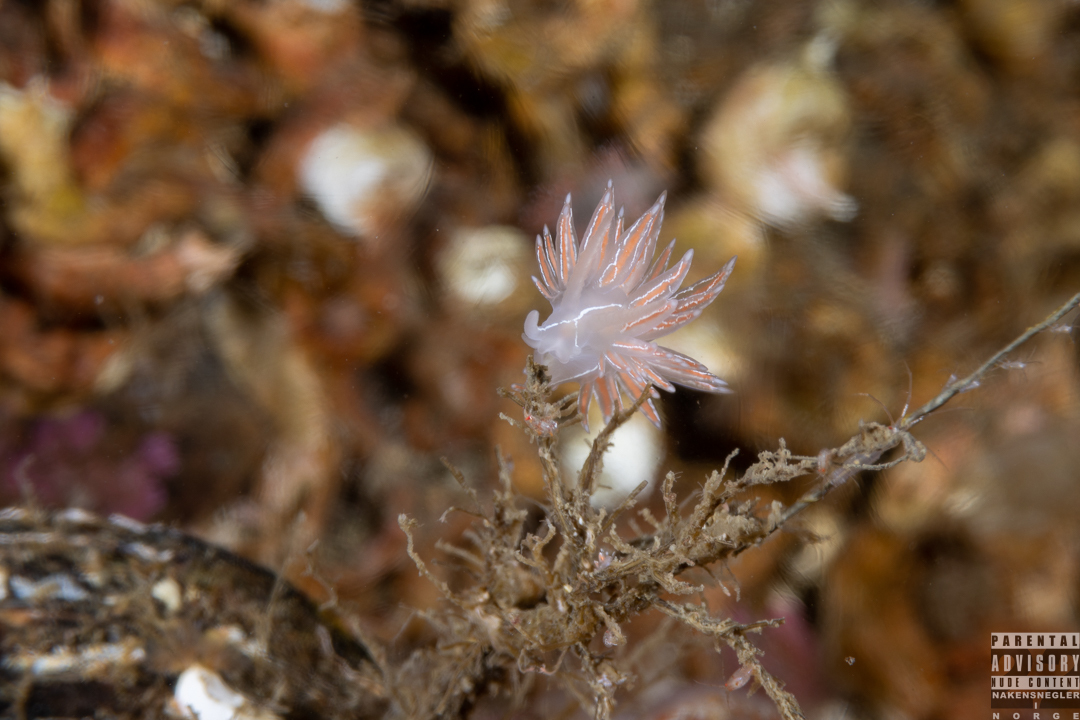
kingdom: Animalia
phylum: Mollusca
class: Gastropoda
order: Nudibranchia
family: Coryphellidae
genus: Coryphella
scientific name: Coryphella chriskaugei
